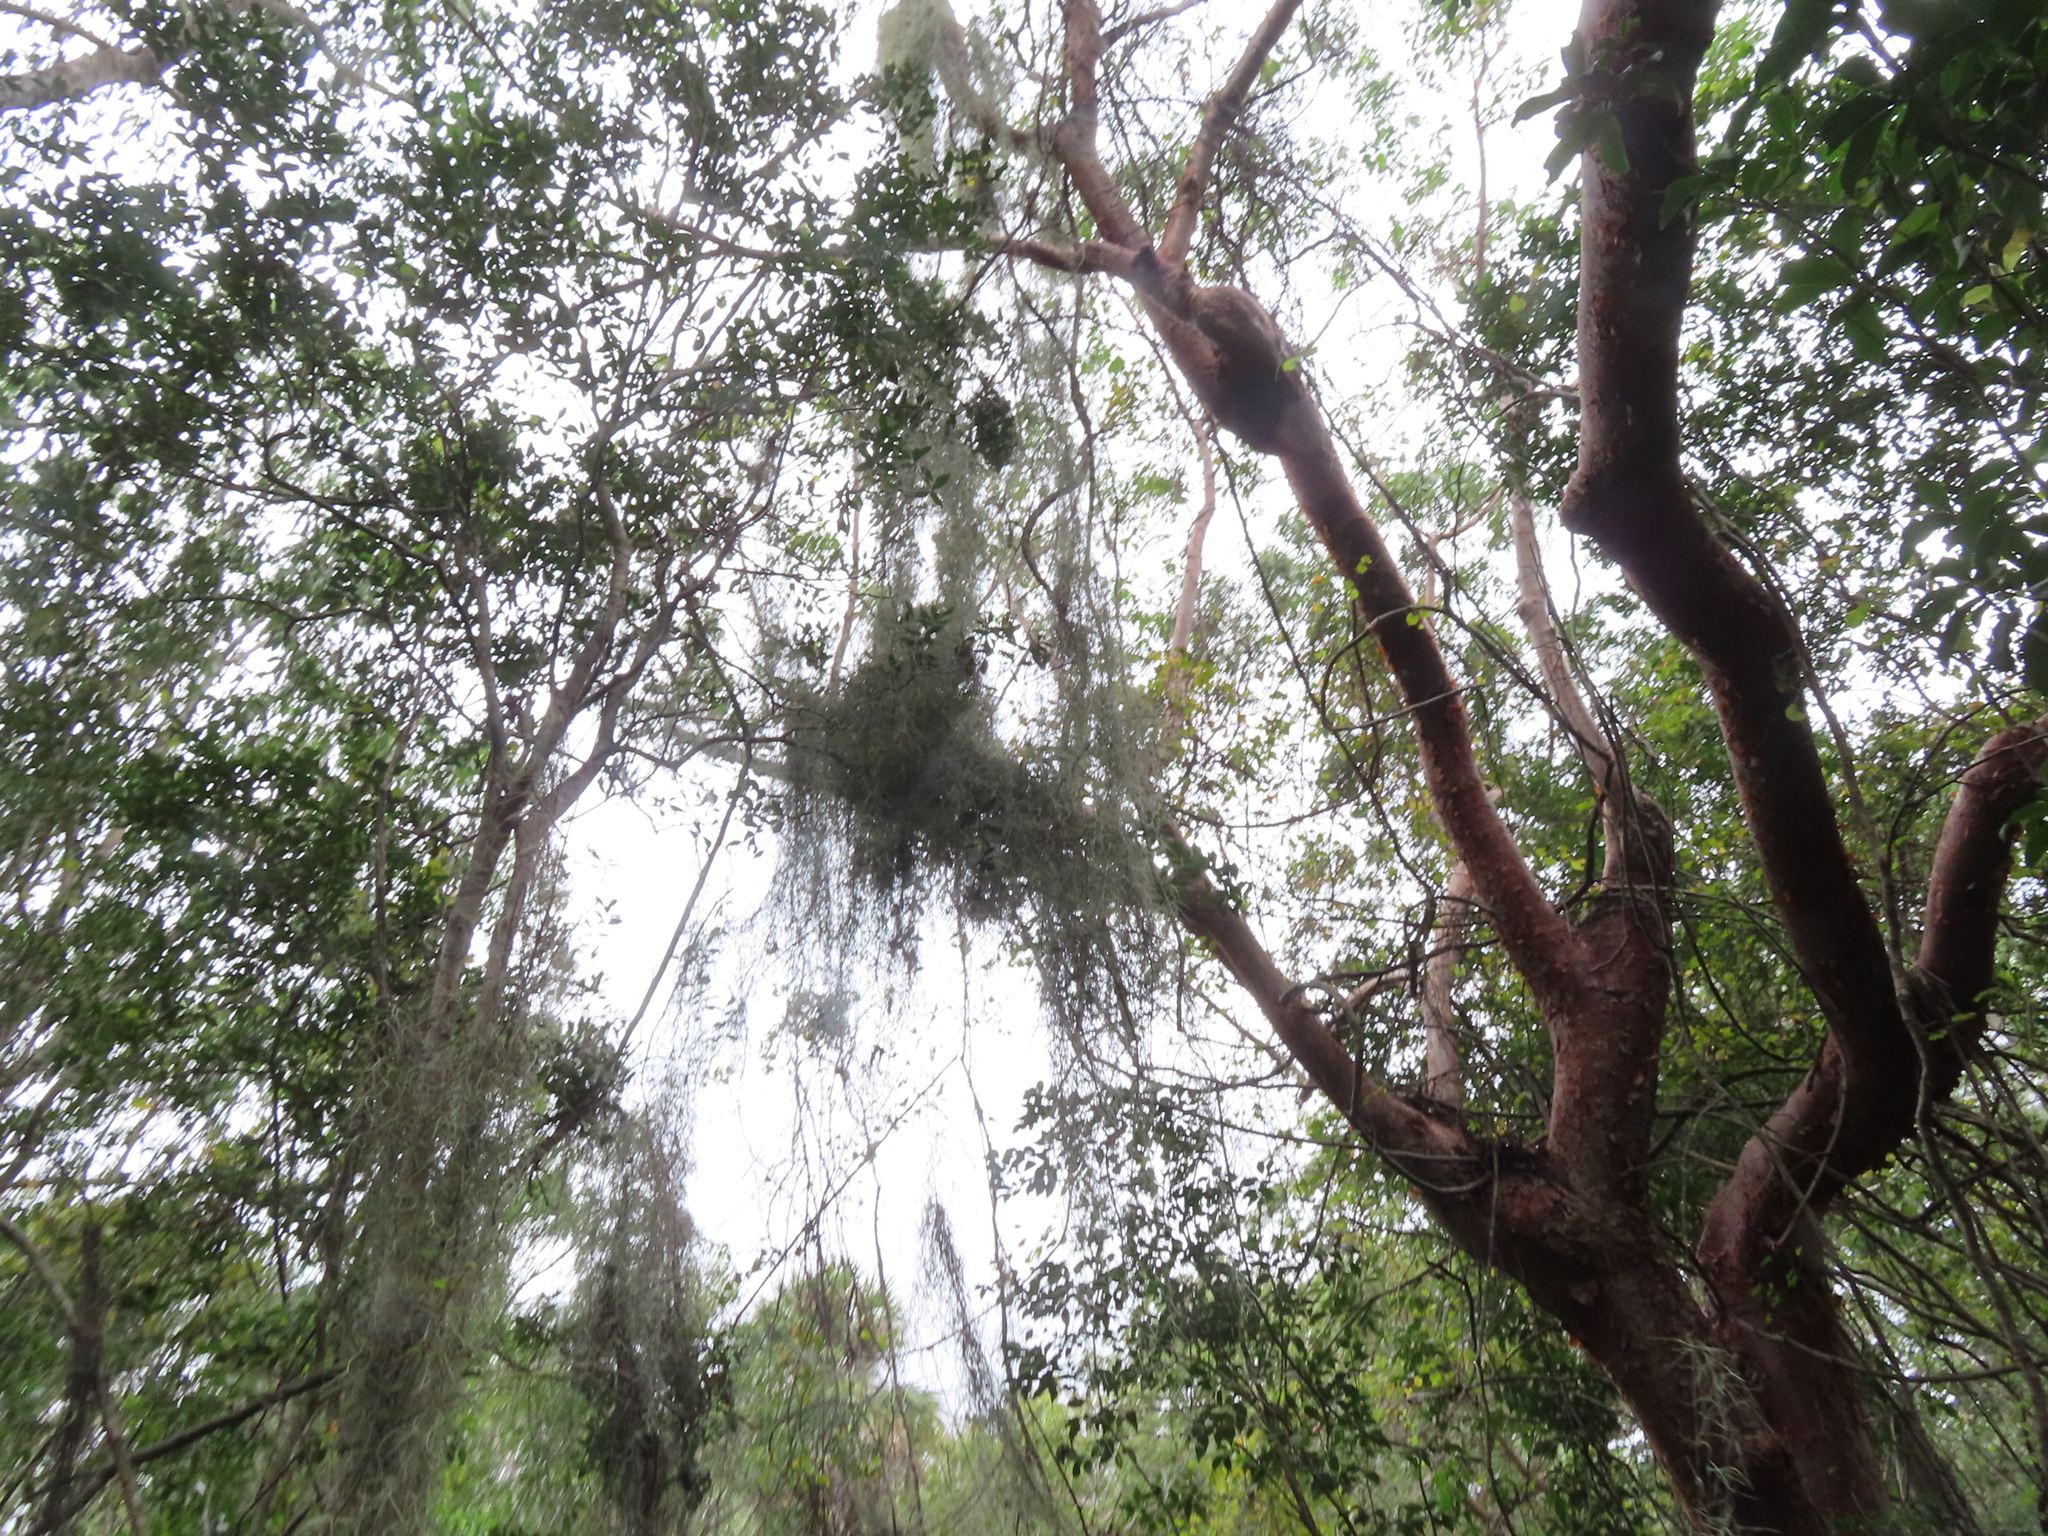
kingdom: Plantae
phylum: Tracheophyta
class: Liliopsida
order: Poales
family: Bromeliaceae
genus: Tillandsia
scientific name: Tillandsia usneoides
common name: Spanish moss
